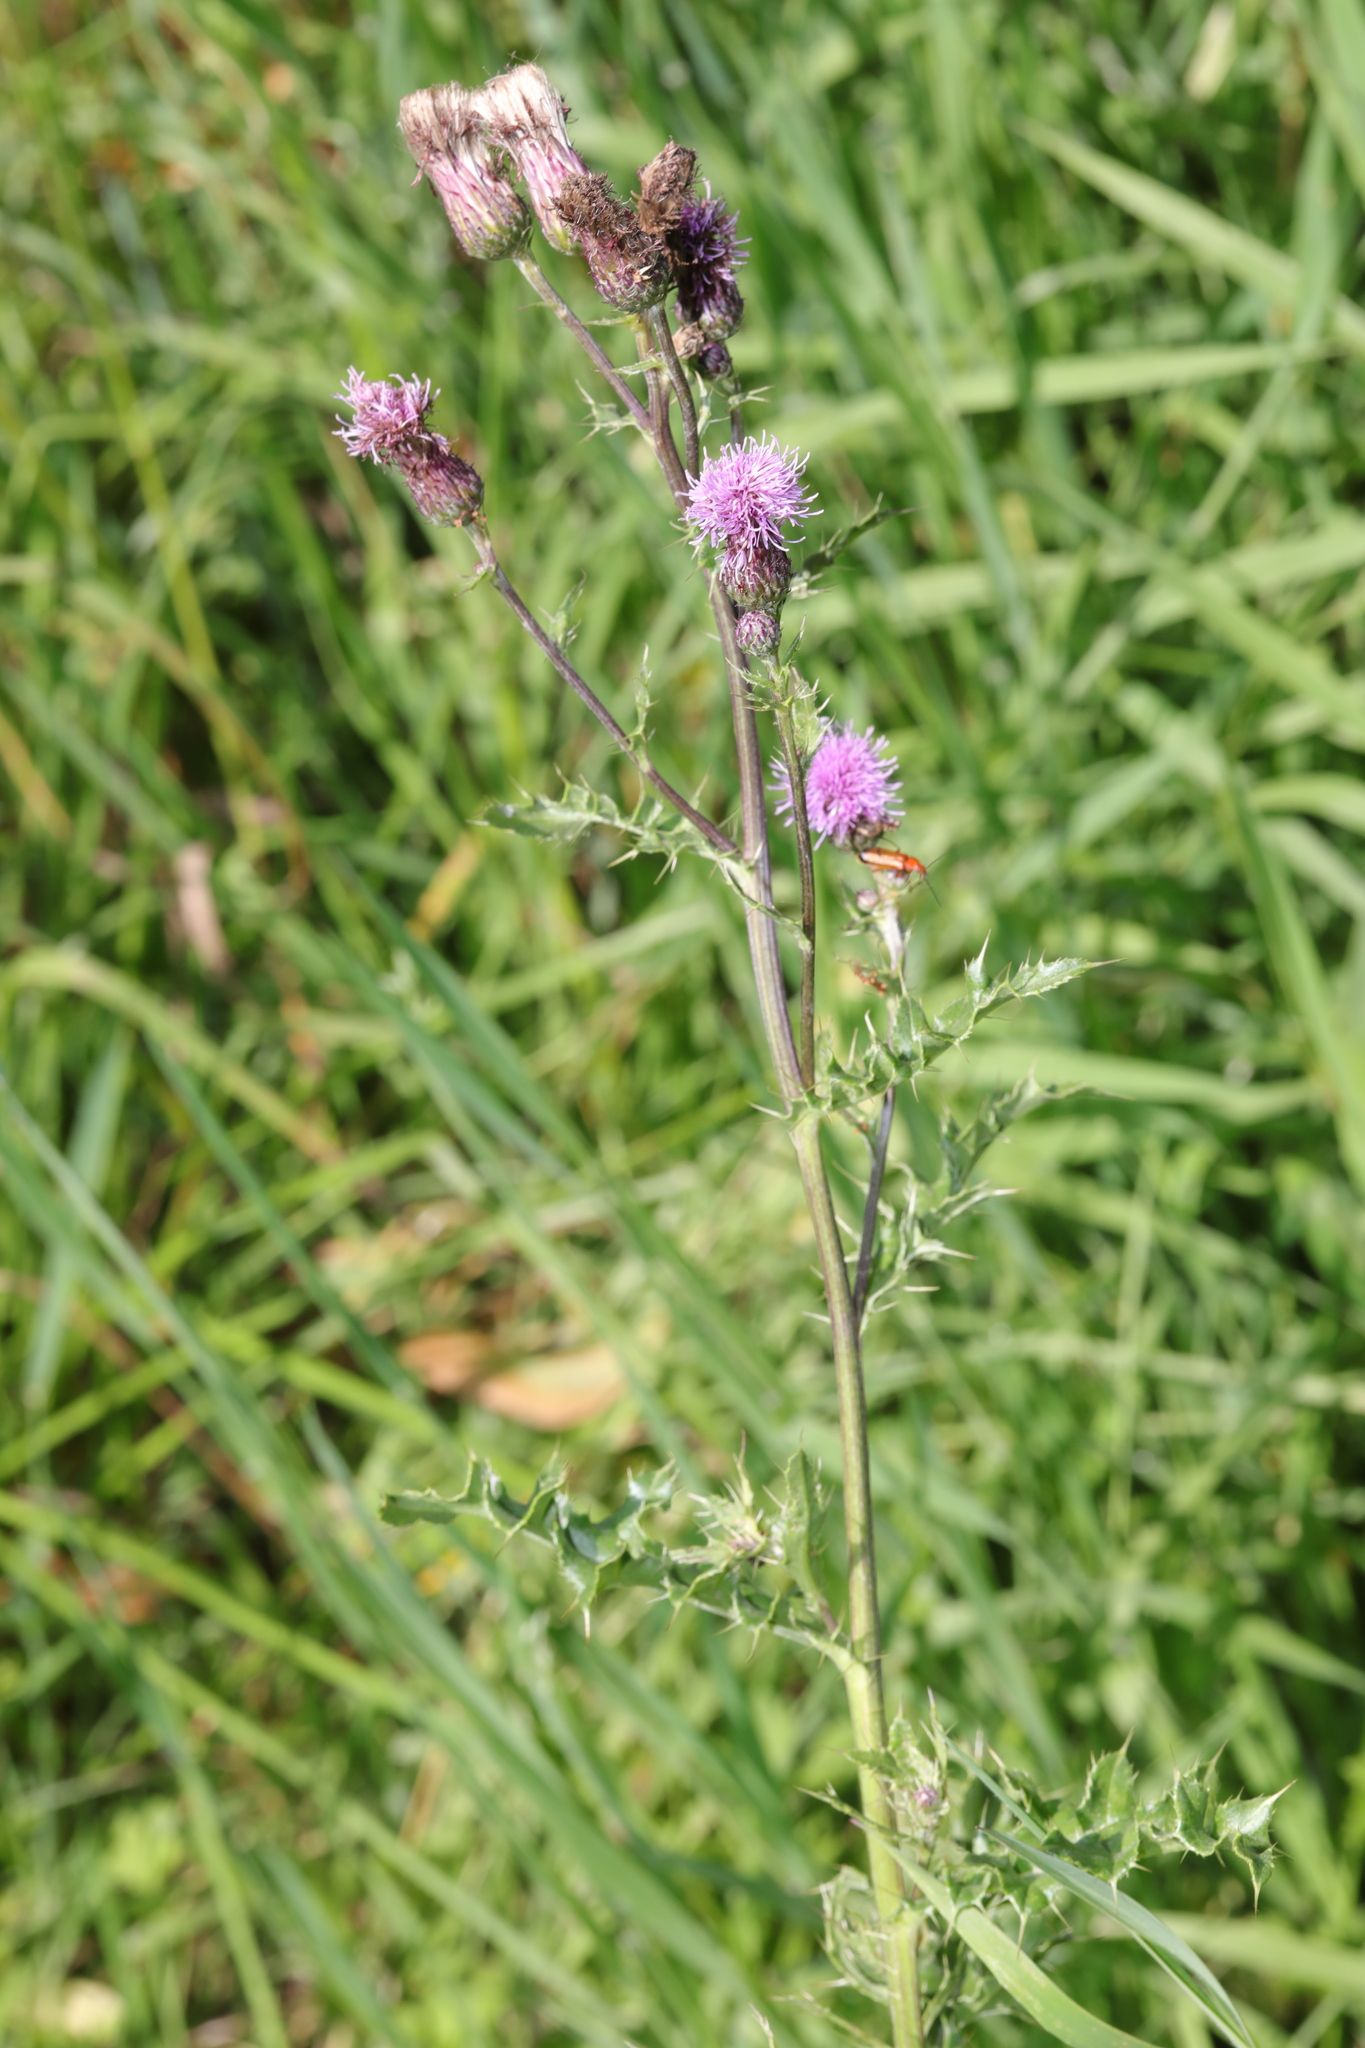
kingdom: Plantae
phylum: Tracheophyta
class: Magnoliopsida
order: Asterales
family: Asteraceae
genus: Cirsium
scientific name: Cirsium arvense
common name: Creeping thistle
